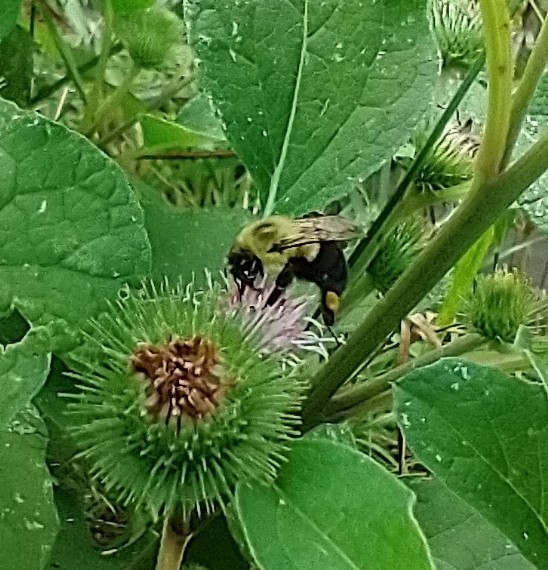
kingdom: Animalia
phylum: Arthropoda
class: Insecta
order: Hymenoptera
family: Apidae
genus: Bombus
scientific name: Bombus impatiens
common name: Common eastern bumble bee
